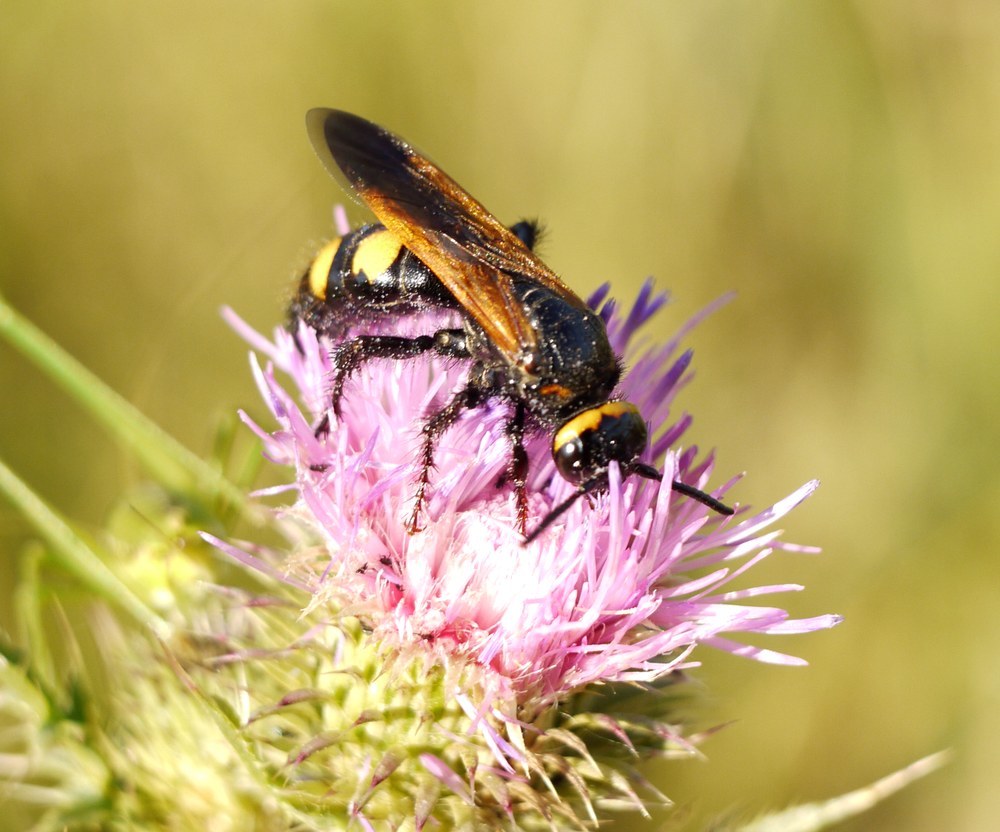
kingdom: Animalia
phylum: Arthropoda
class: Insecta
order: Hymenoptera
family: Scoliidae
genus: Scolia
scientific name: Scolia fuciformis
